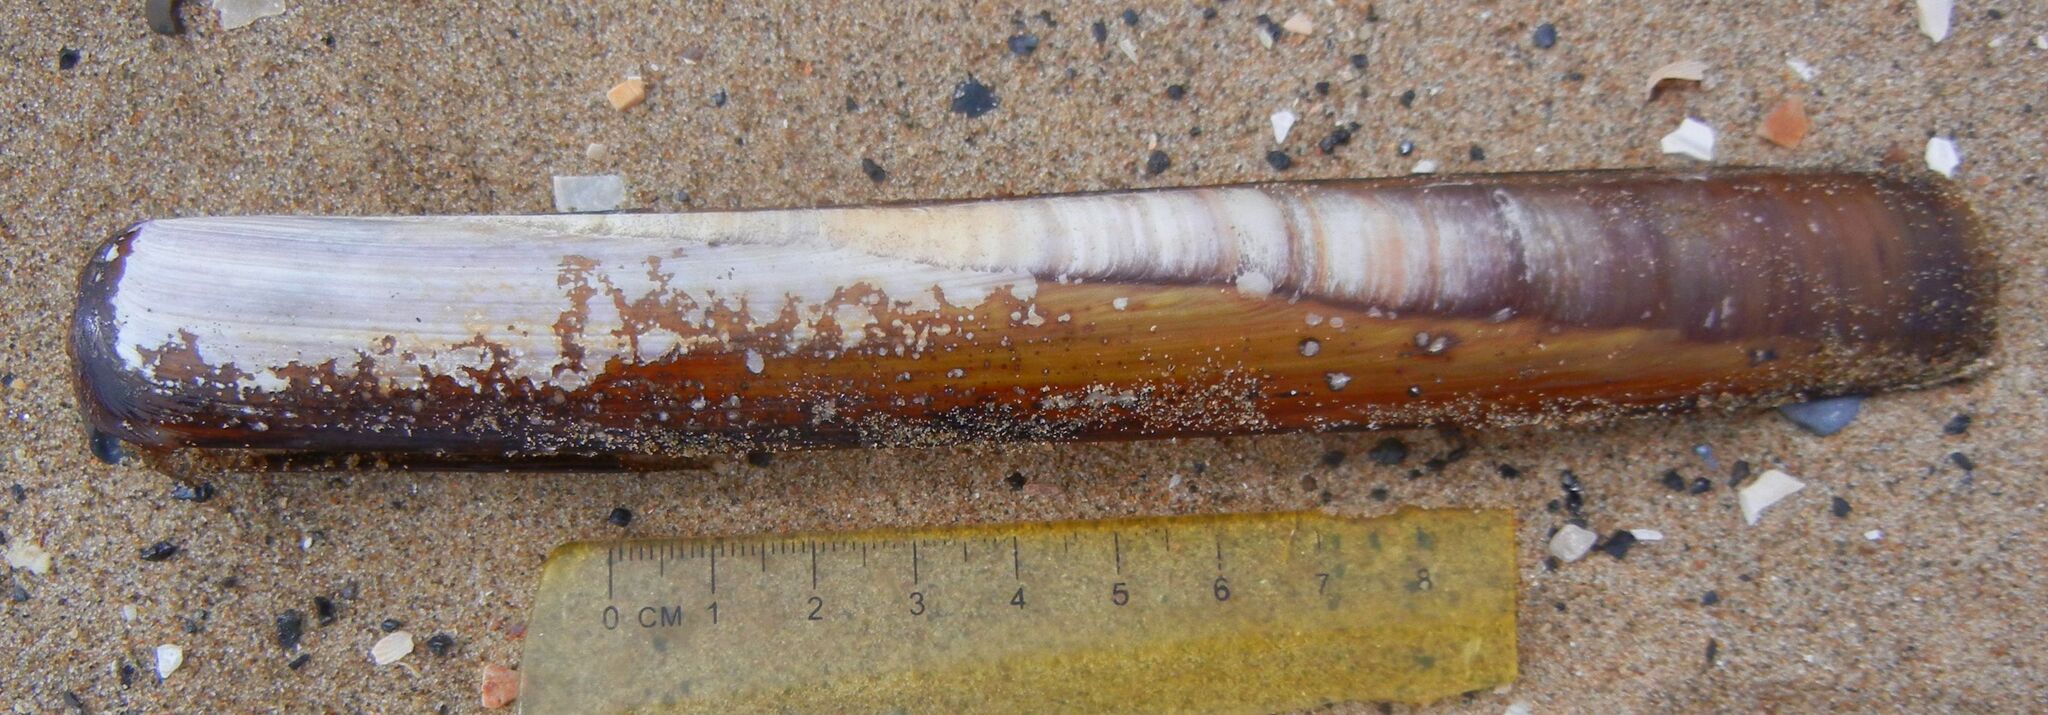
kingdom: Animalia
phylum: Mollusca
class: Bivalvia
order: Adapedonta
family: Pharidae
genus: Ensis
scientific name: Ensis siliqua
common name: Pod razor shell
